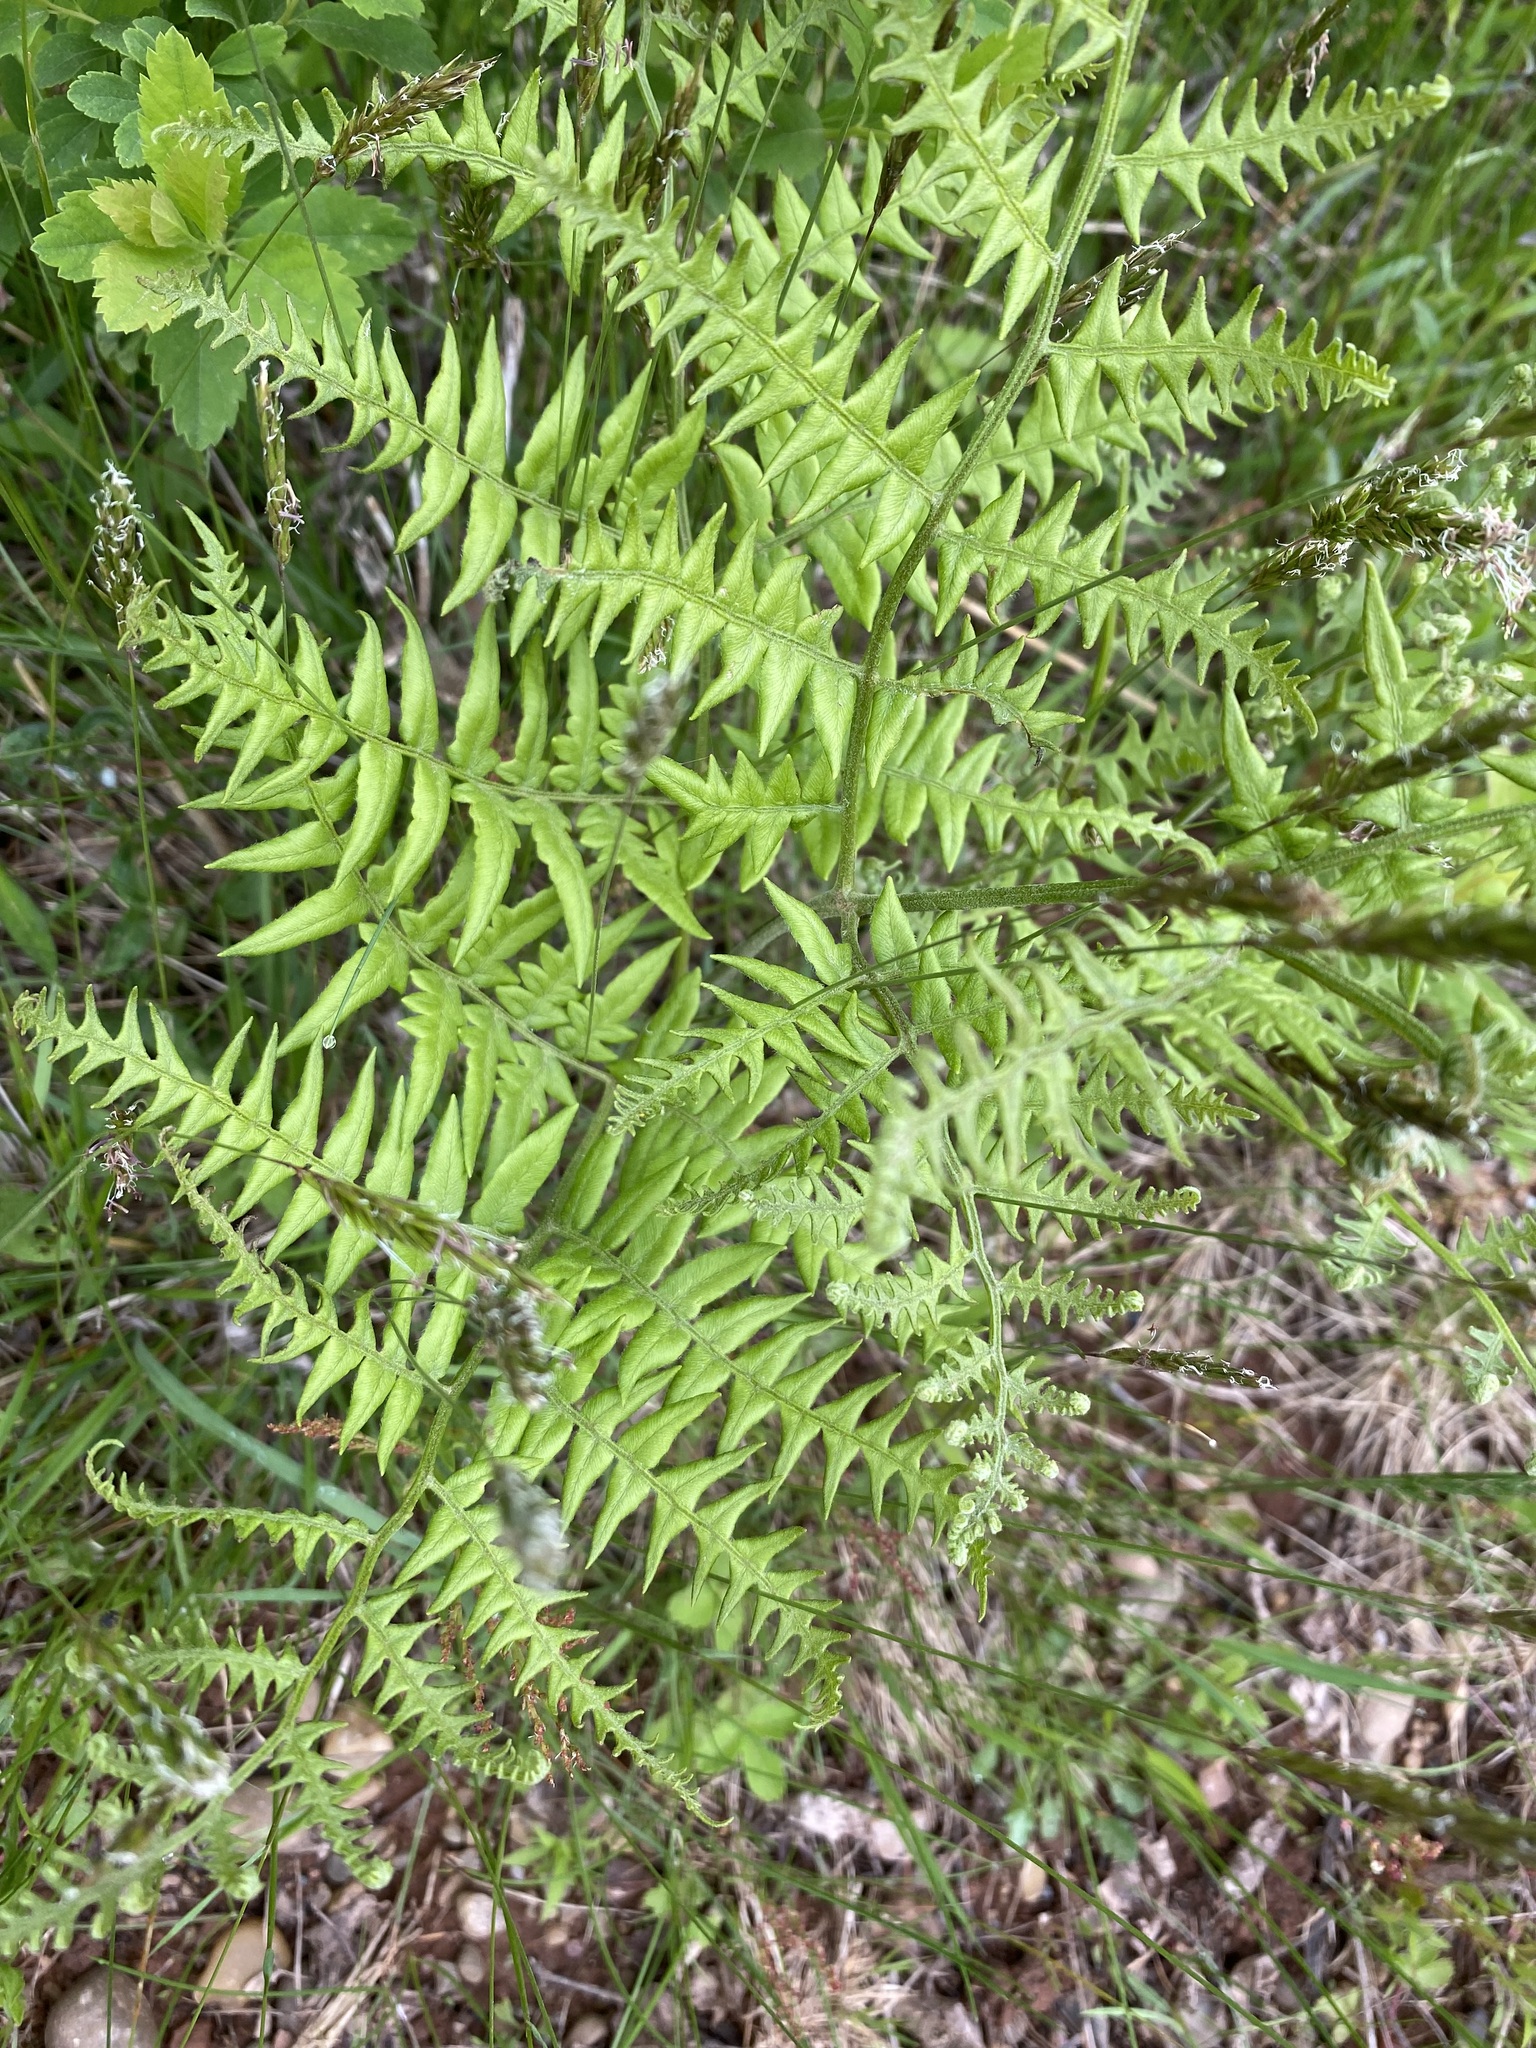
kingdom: Plantae
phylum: Tracheophyta
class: Polypodiopsida
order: Polypodiales
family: Dennstaedtiaceae
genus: Pteridium
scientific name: Pteridium aquilinum
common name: Bracken
